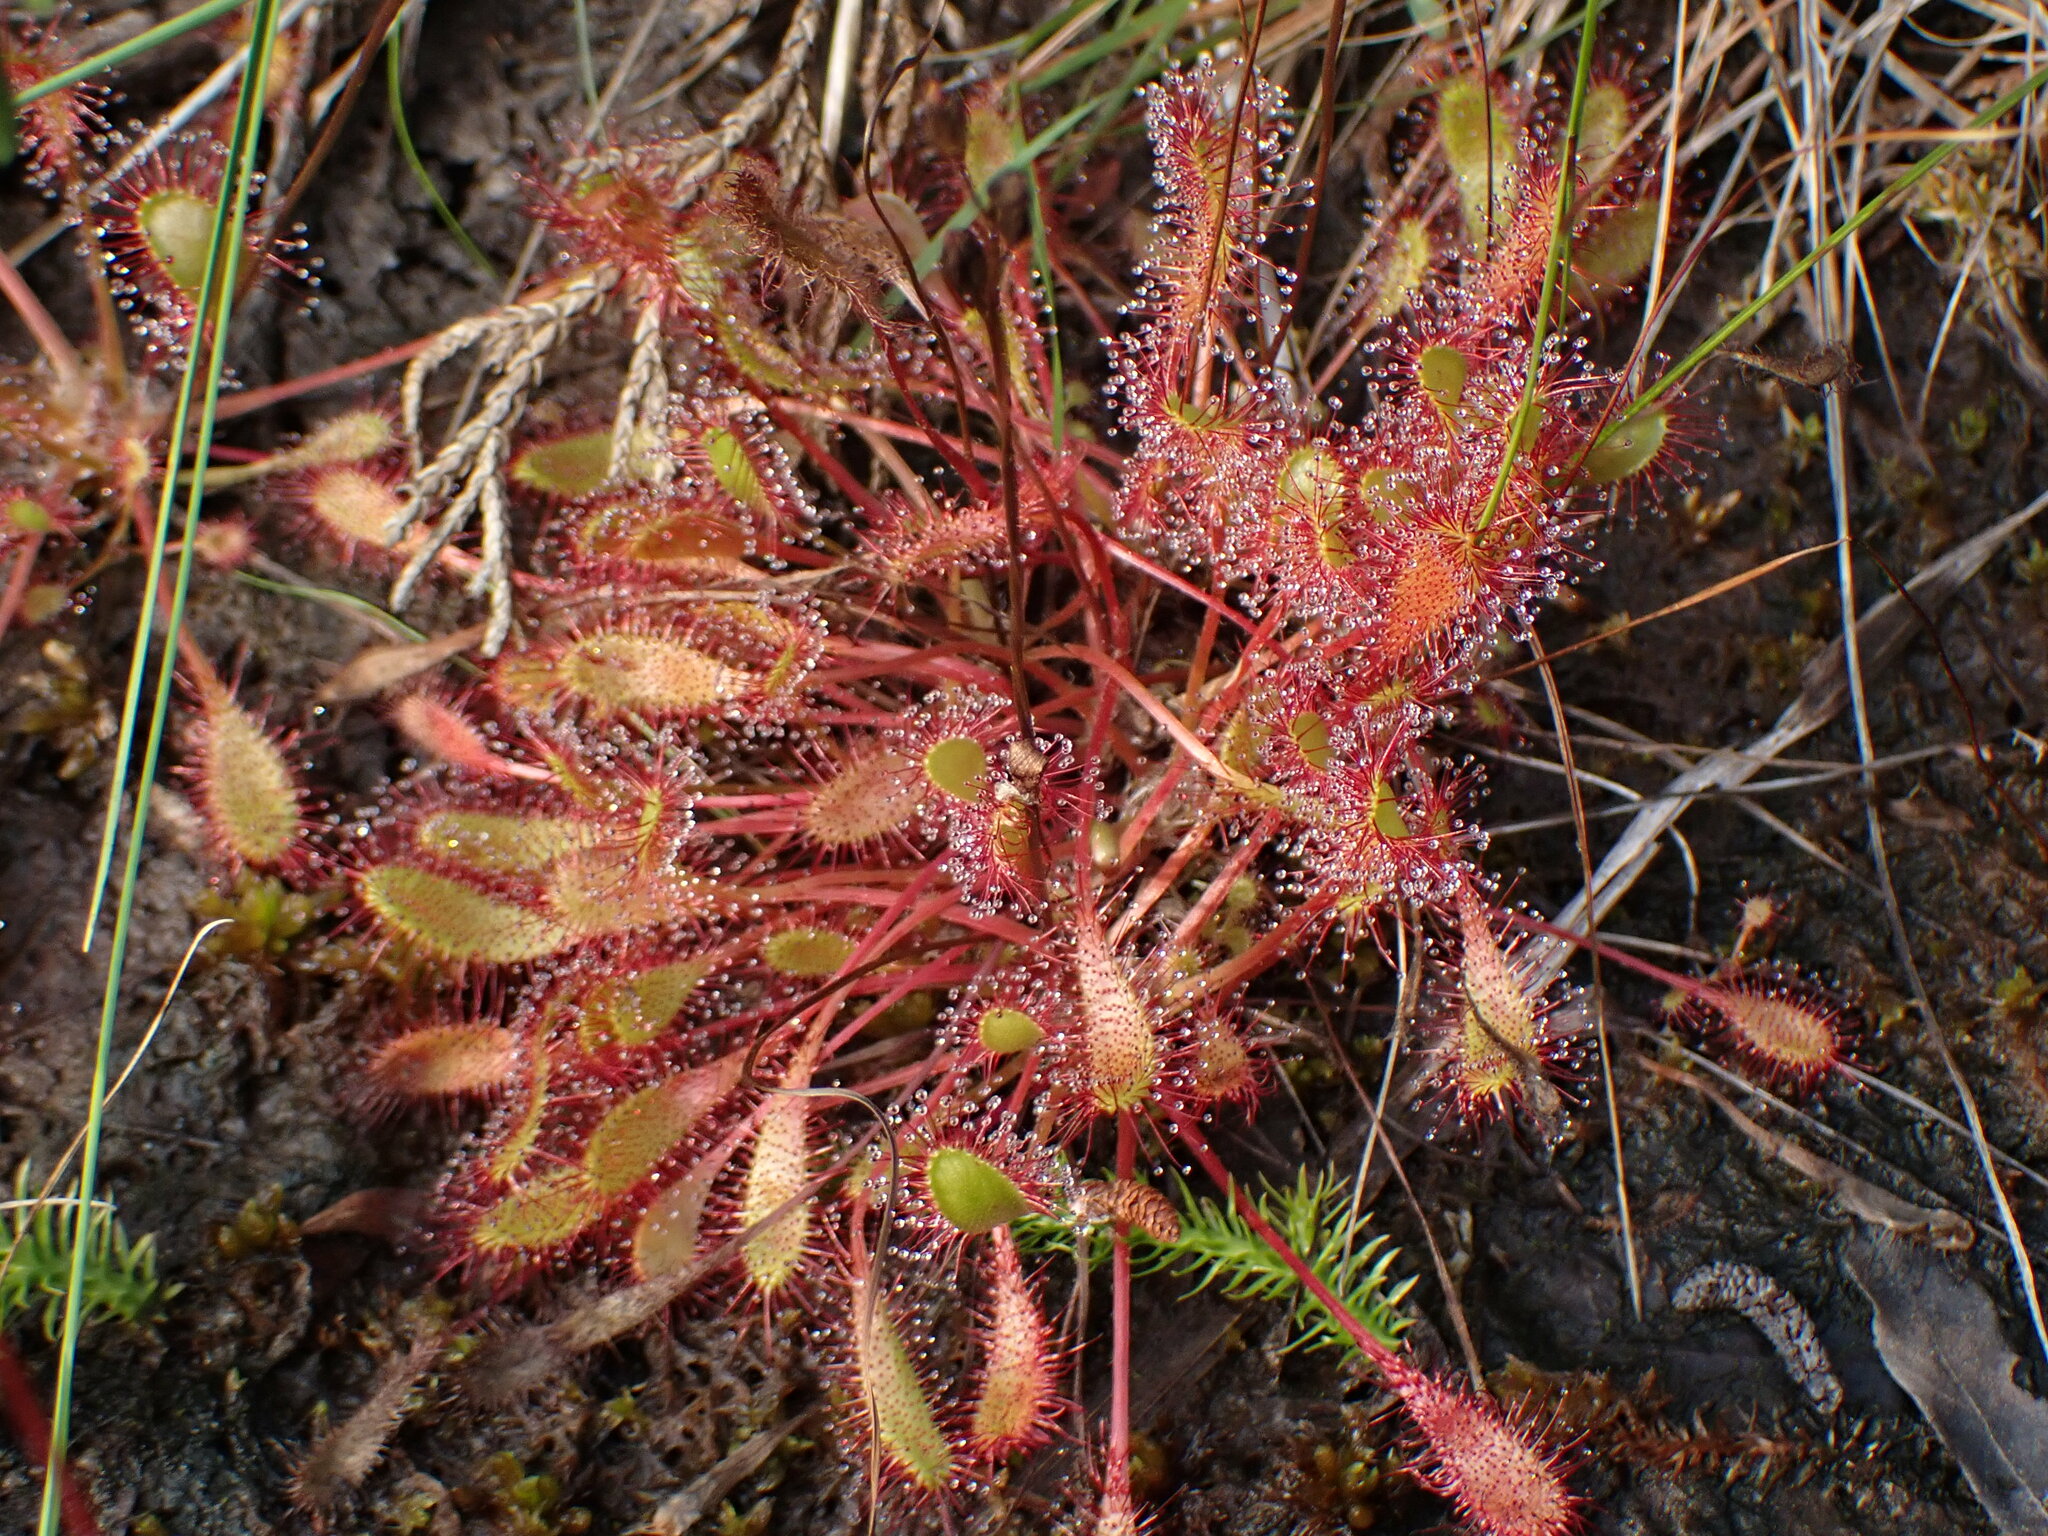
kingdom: Plantae
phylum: Tracheophyta
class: Magnoliopsida
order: Caryophyllales
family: Droseraceae
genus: Drosera
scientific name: Drosera anglica
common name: Great sundew
